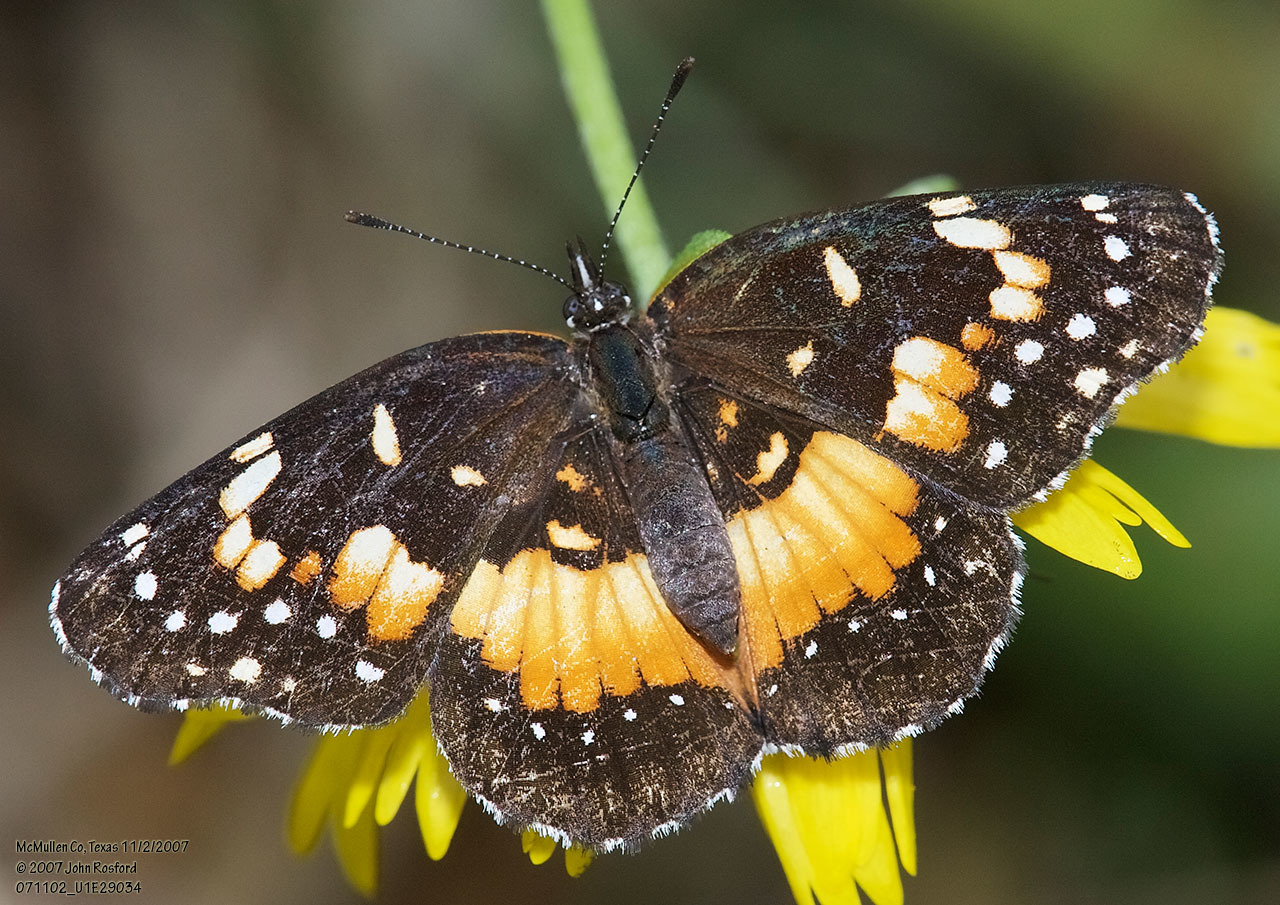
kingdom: Animalia
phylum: Arthropoda
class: Insecta
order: Lepidoptera
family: Nymphalidae
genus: Chlosyne
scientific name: Chlosyne lacinia
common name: Bordered patch
